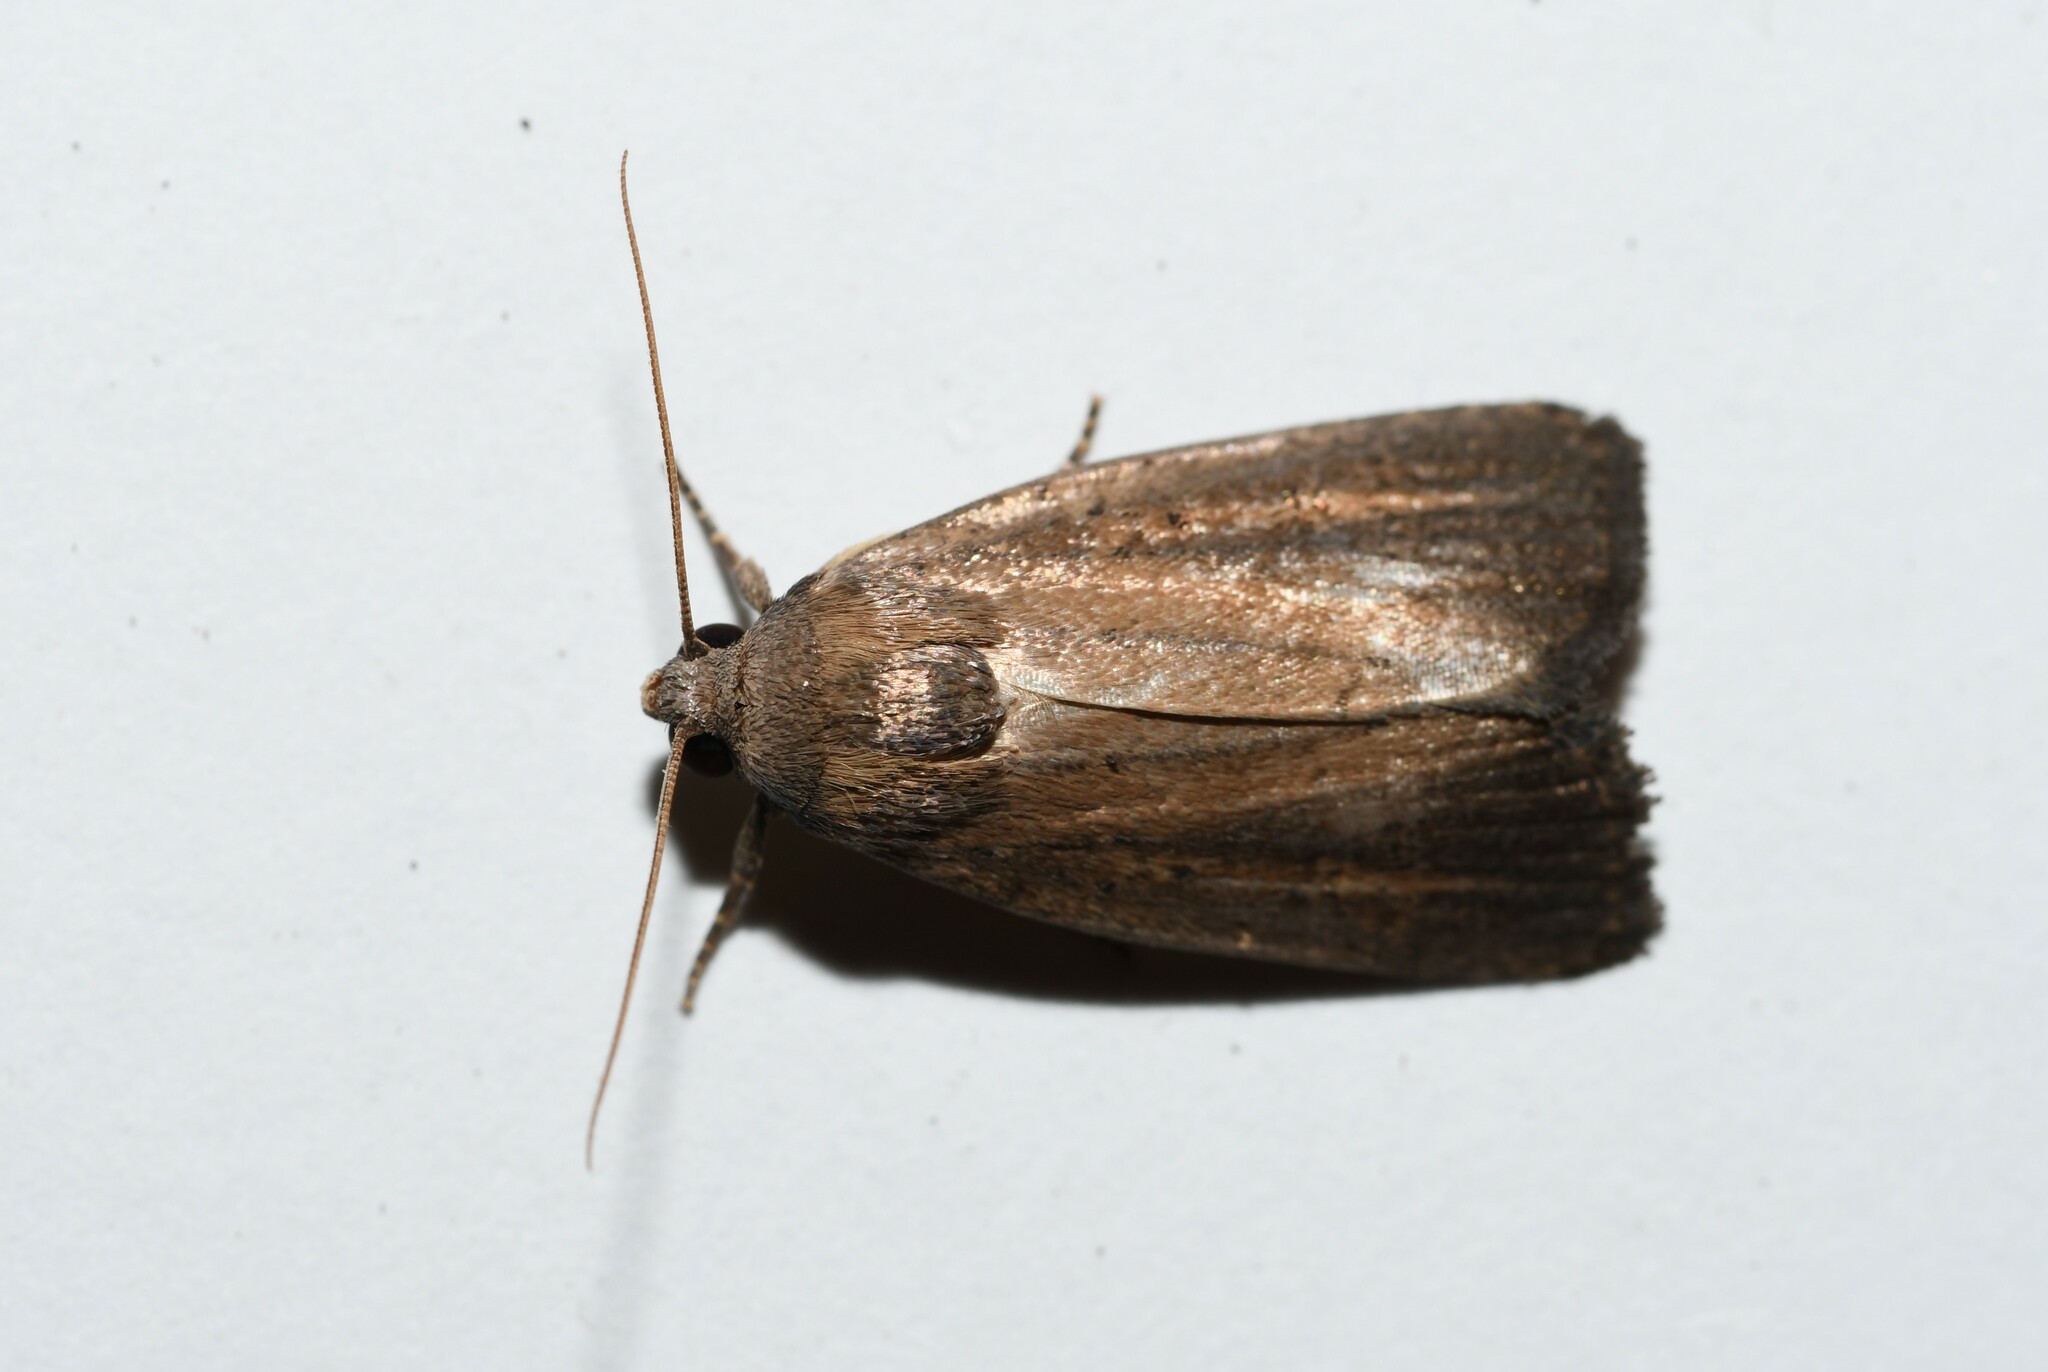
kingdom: Animalia
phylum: Arthropoda
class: Insecta
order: Lepidoptera
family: Noctuidae
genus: Athetis
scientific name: Athetis hospes
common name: Porter's rustic
